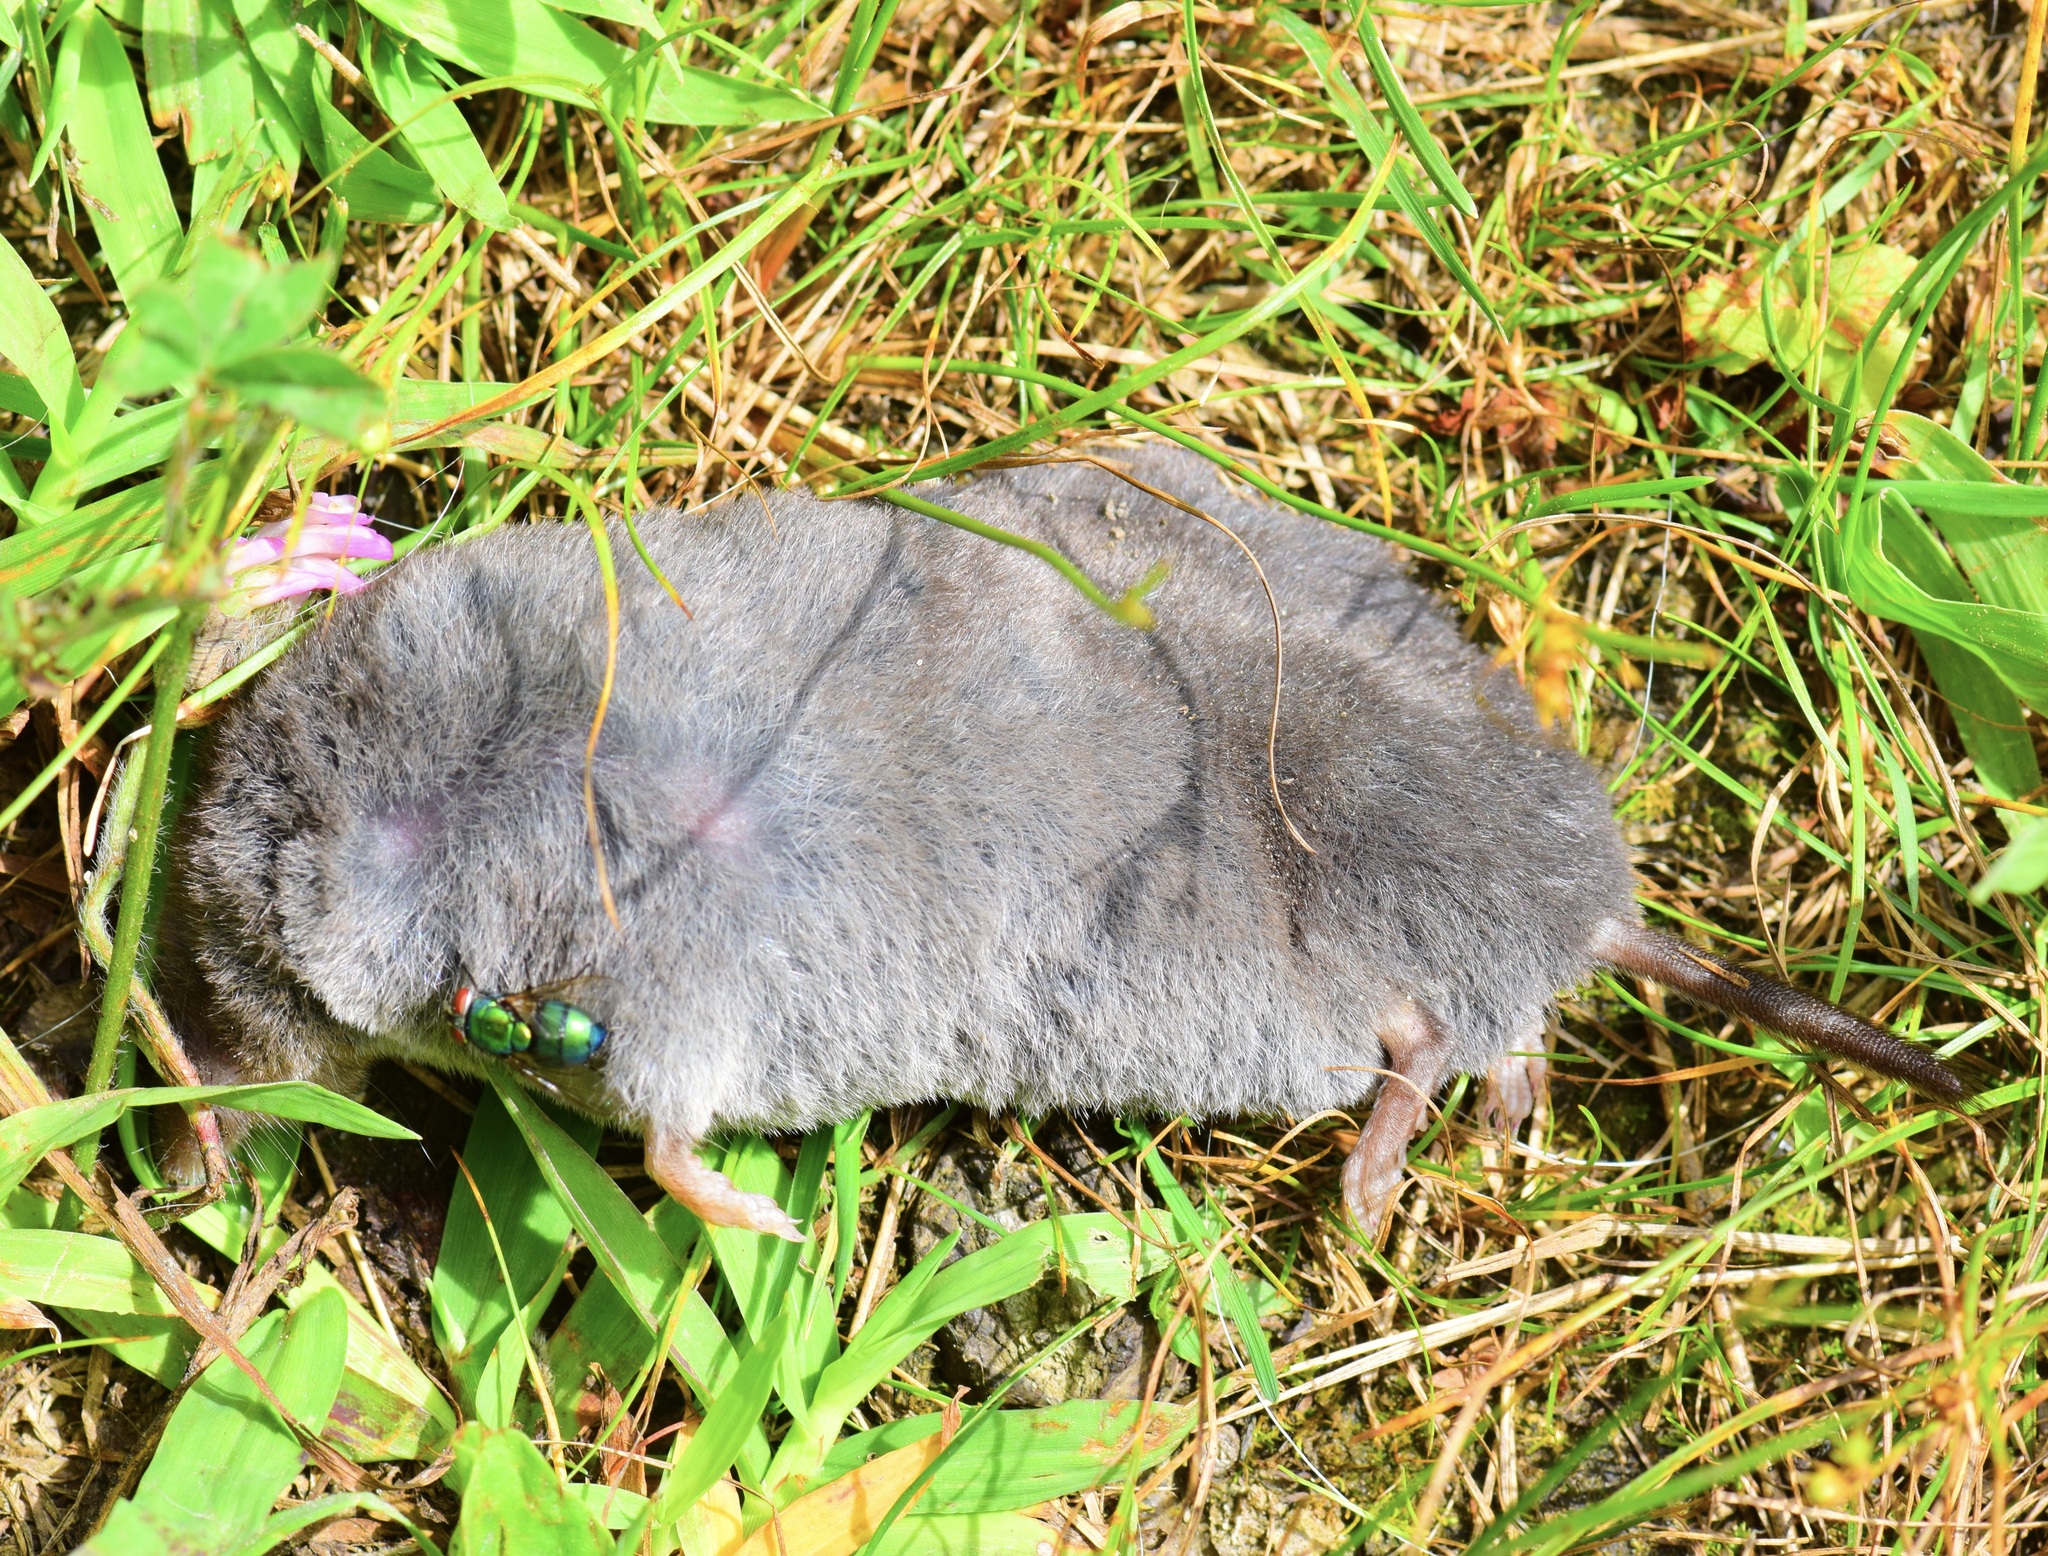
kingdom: Animalia
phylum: Chordata
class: Mammalia
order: Soricomorpha
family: Soricidae
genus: Blarina
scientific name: Blarina brevicauda
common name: Northern short-tailed shrew
